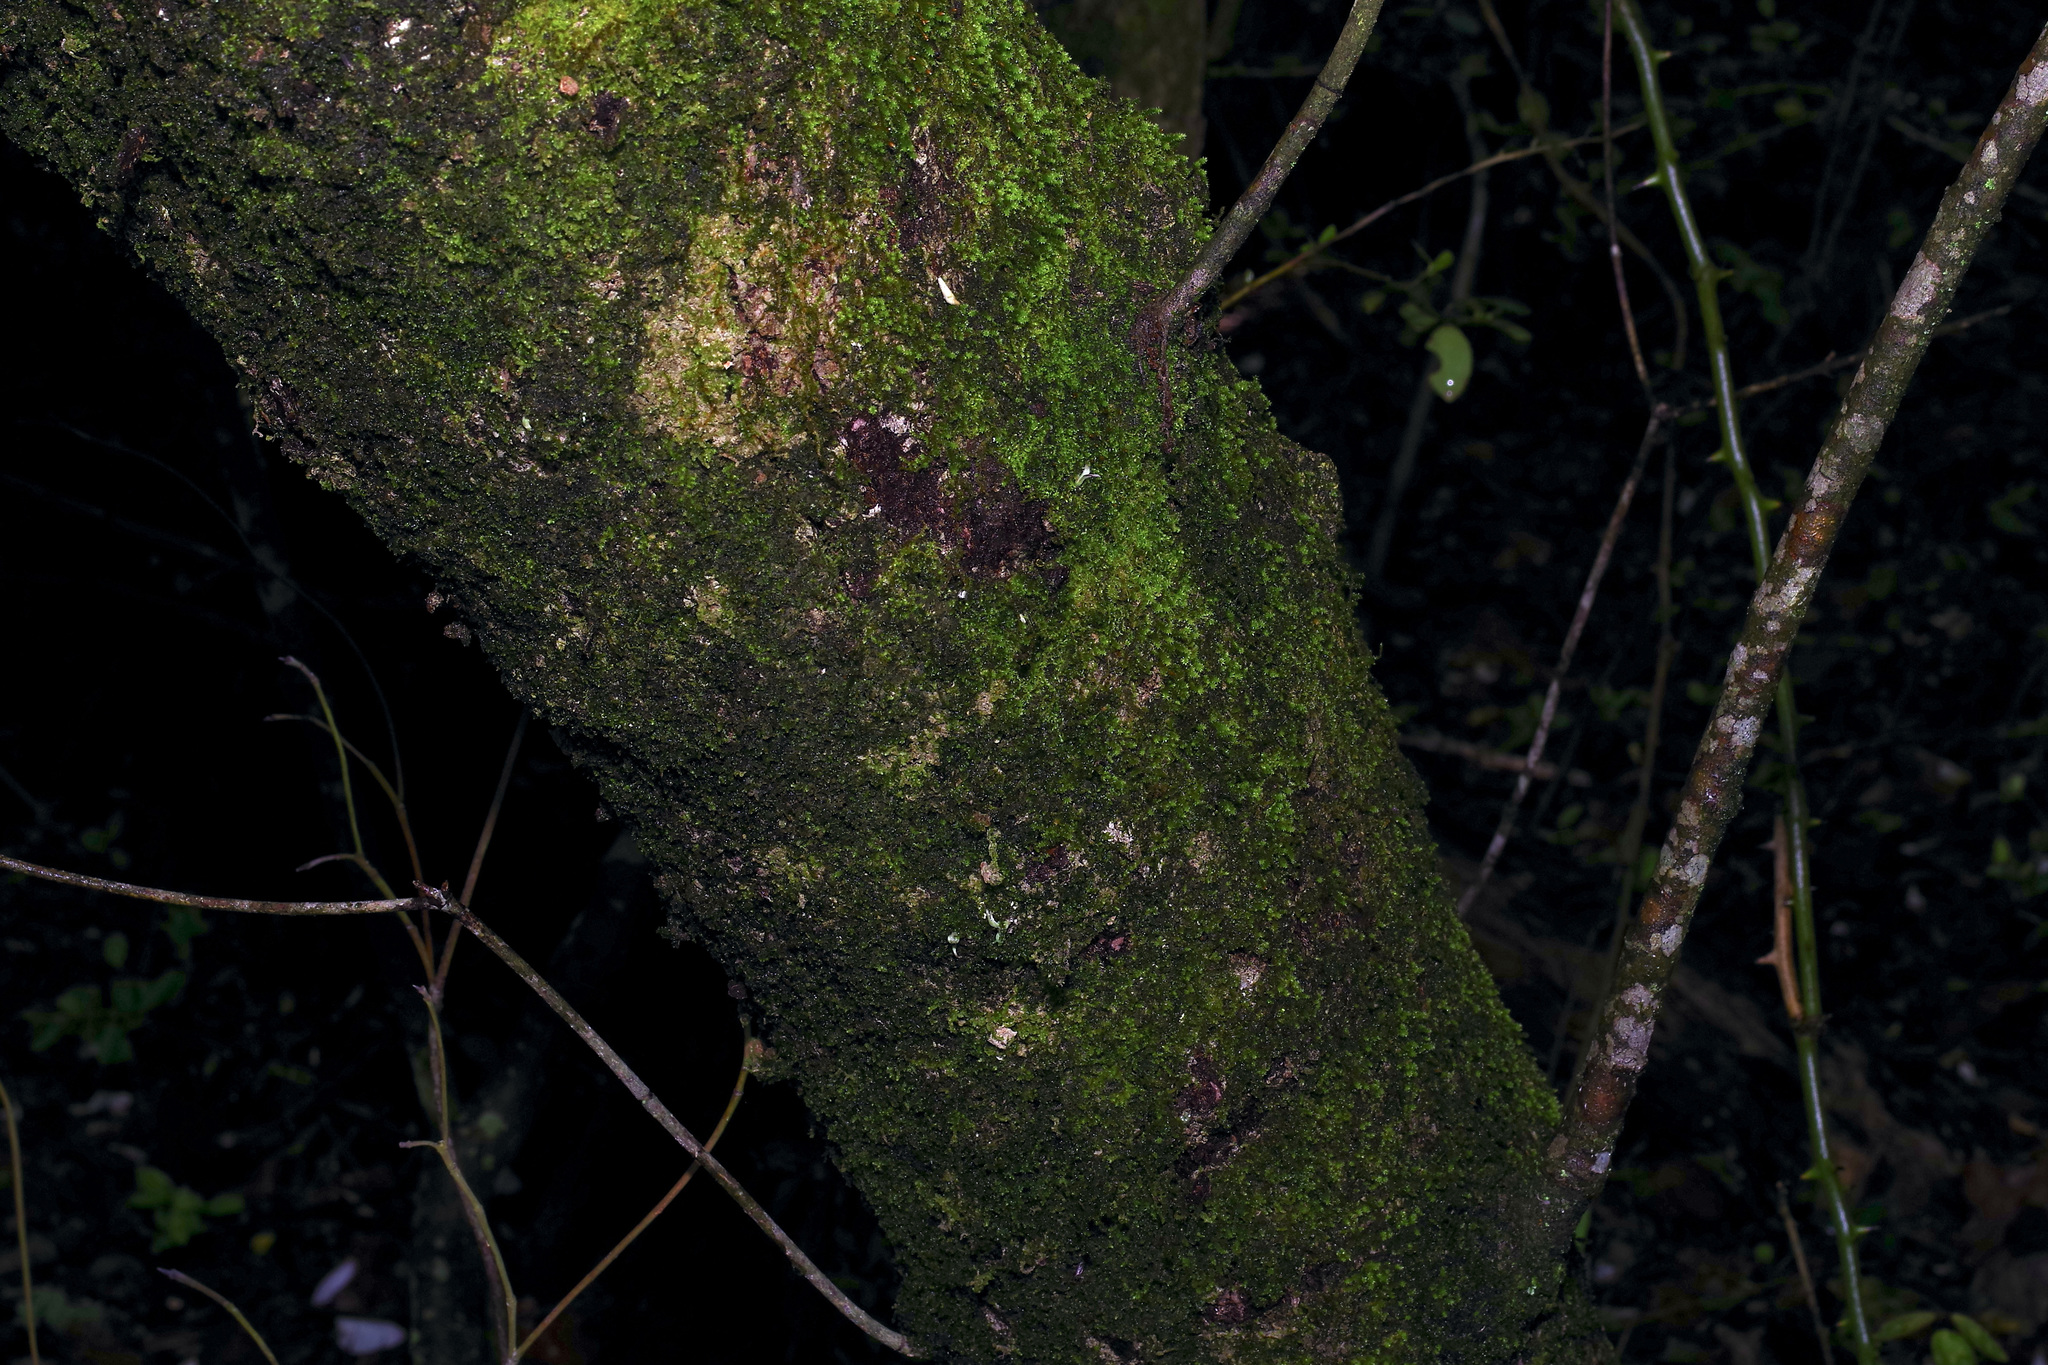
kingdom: Plantae
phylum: Tracheophyta
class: Magnoliopsida
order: Cornales
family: Cornaceae
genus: Cornus
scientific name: Cornus florida
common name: Flowering dogwood
